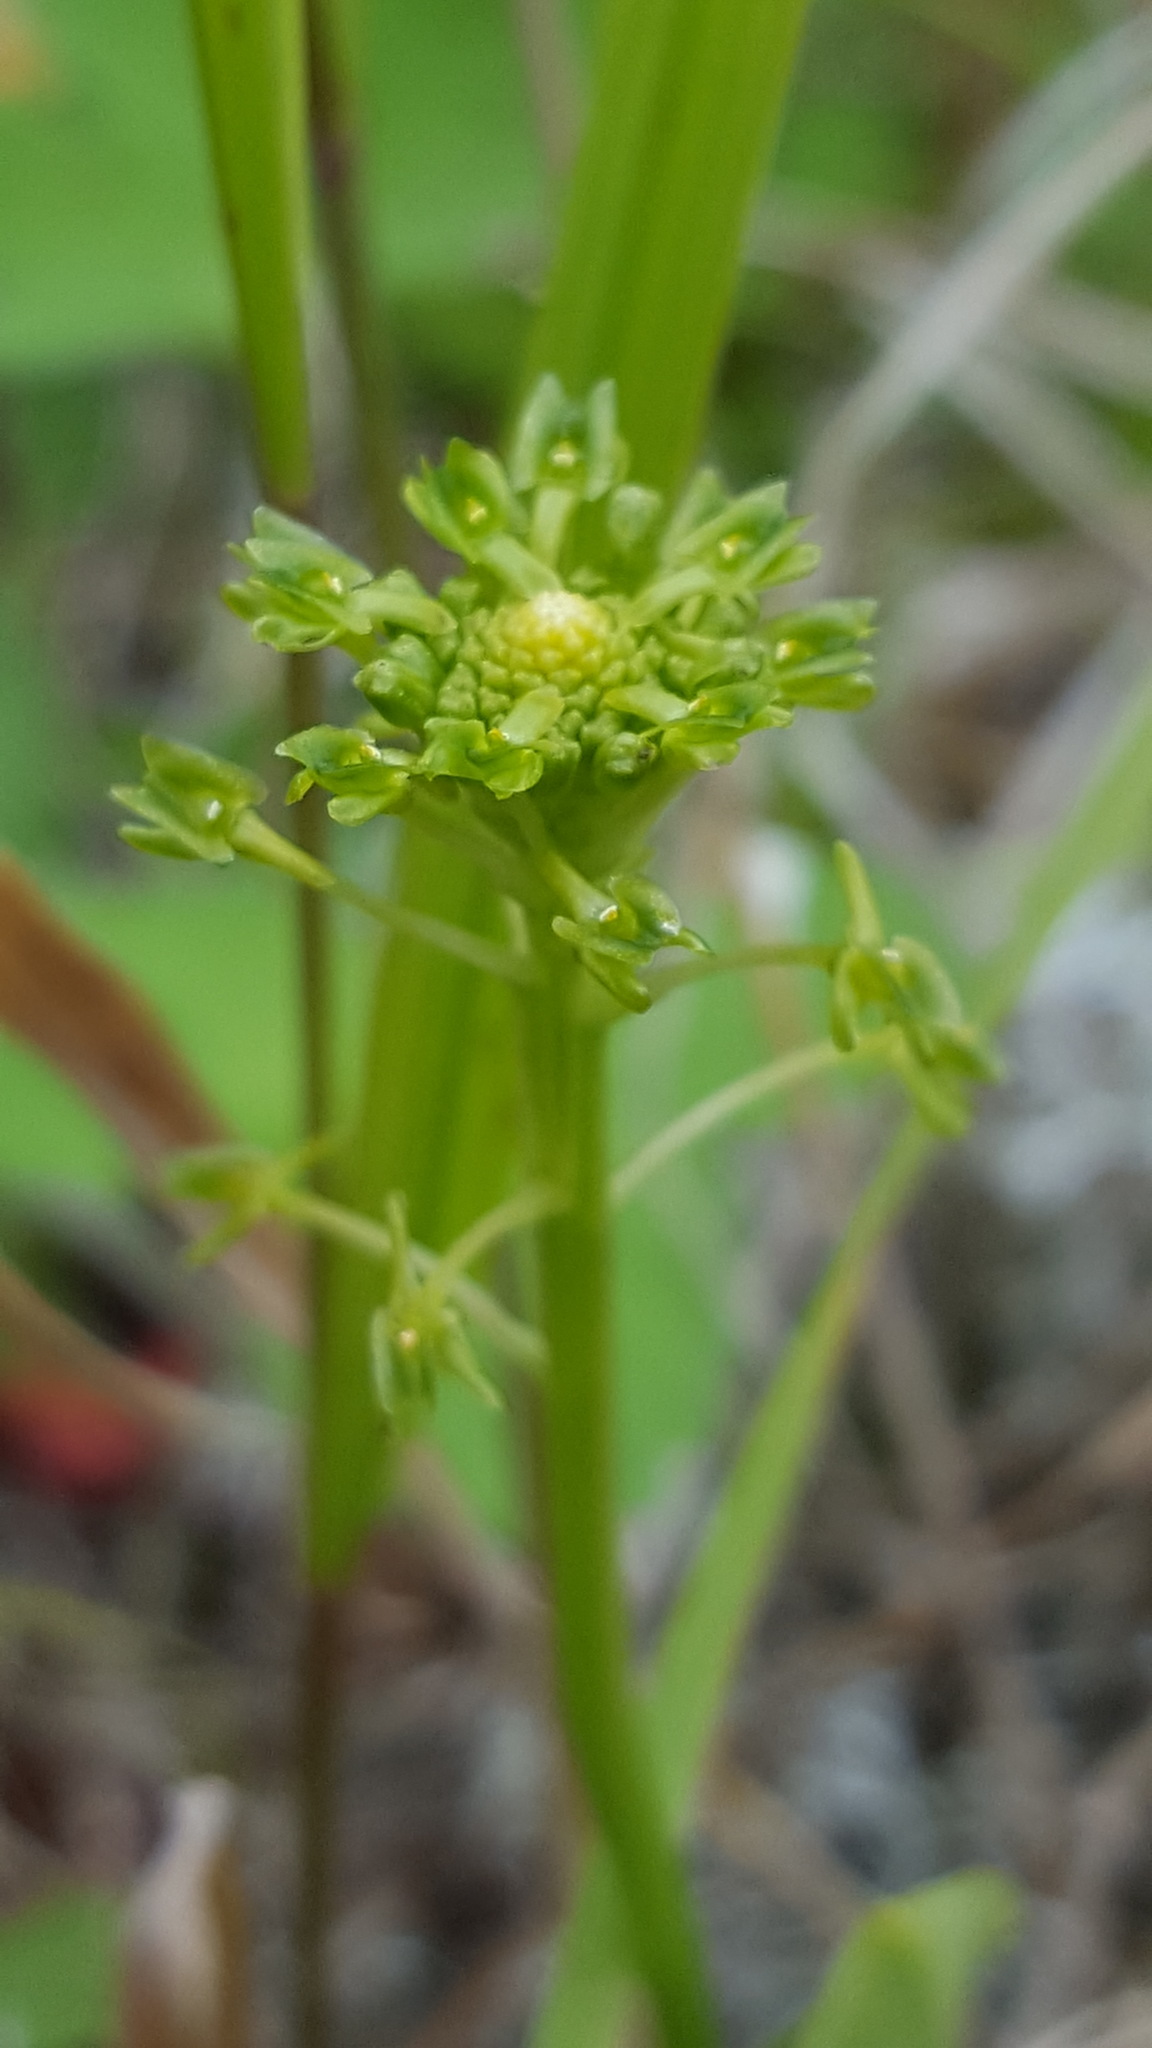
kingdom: Plantae
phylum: Tracheophyta
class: Liliopsida
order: Asparagales
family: Orchidaceae
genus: Malaxis
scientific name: Malaxis unifolia
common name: Green adder's-mouth
